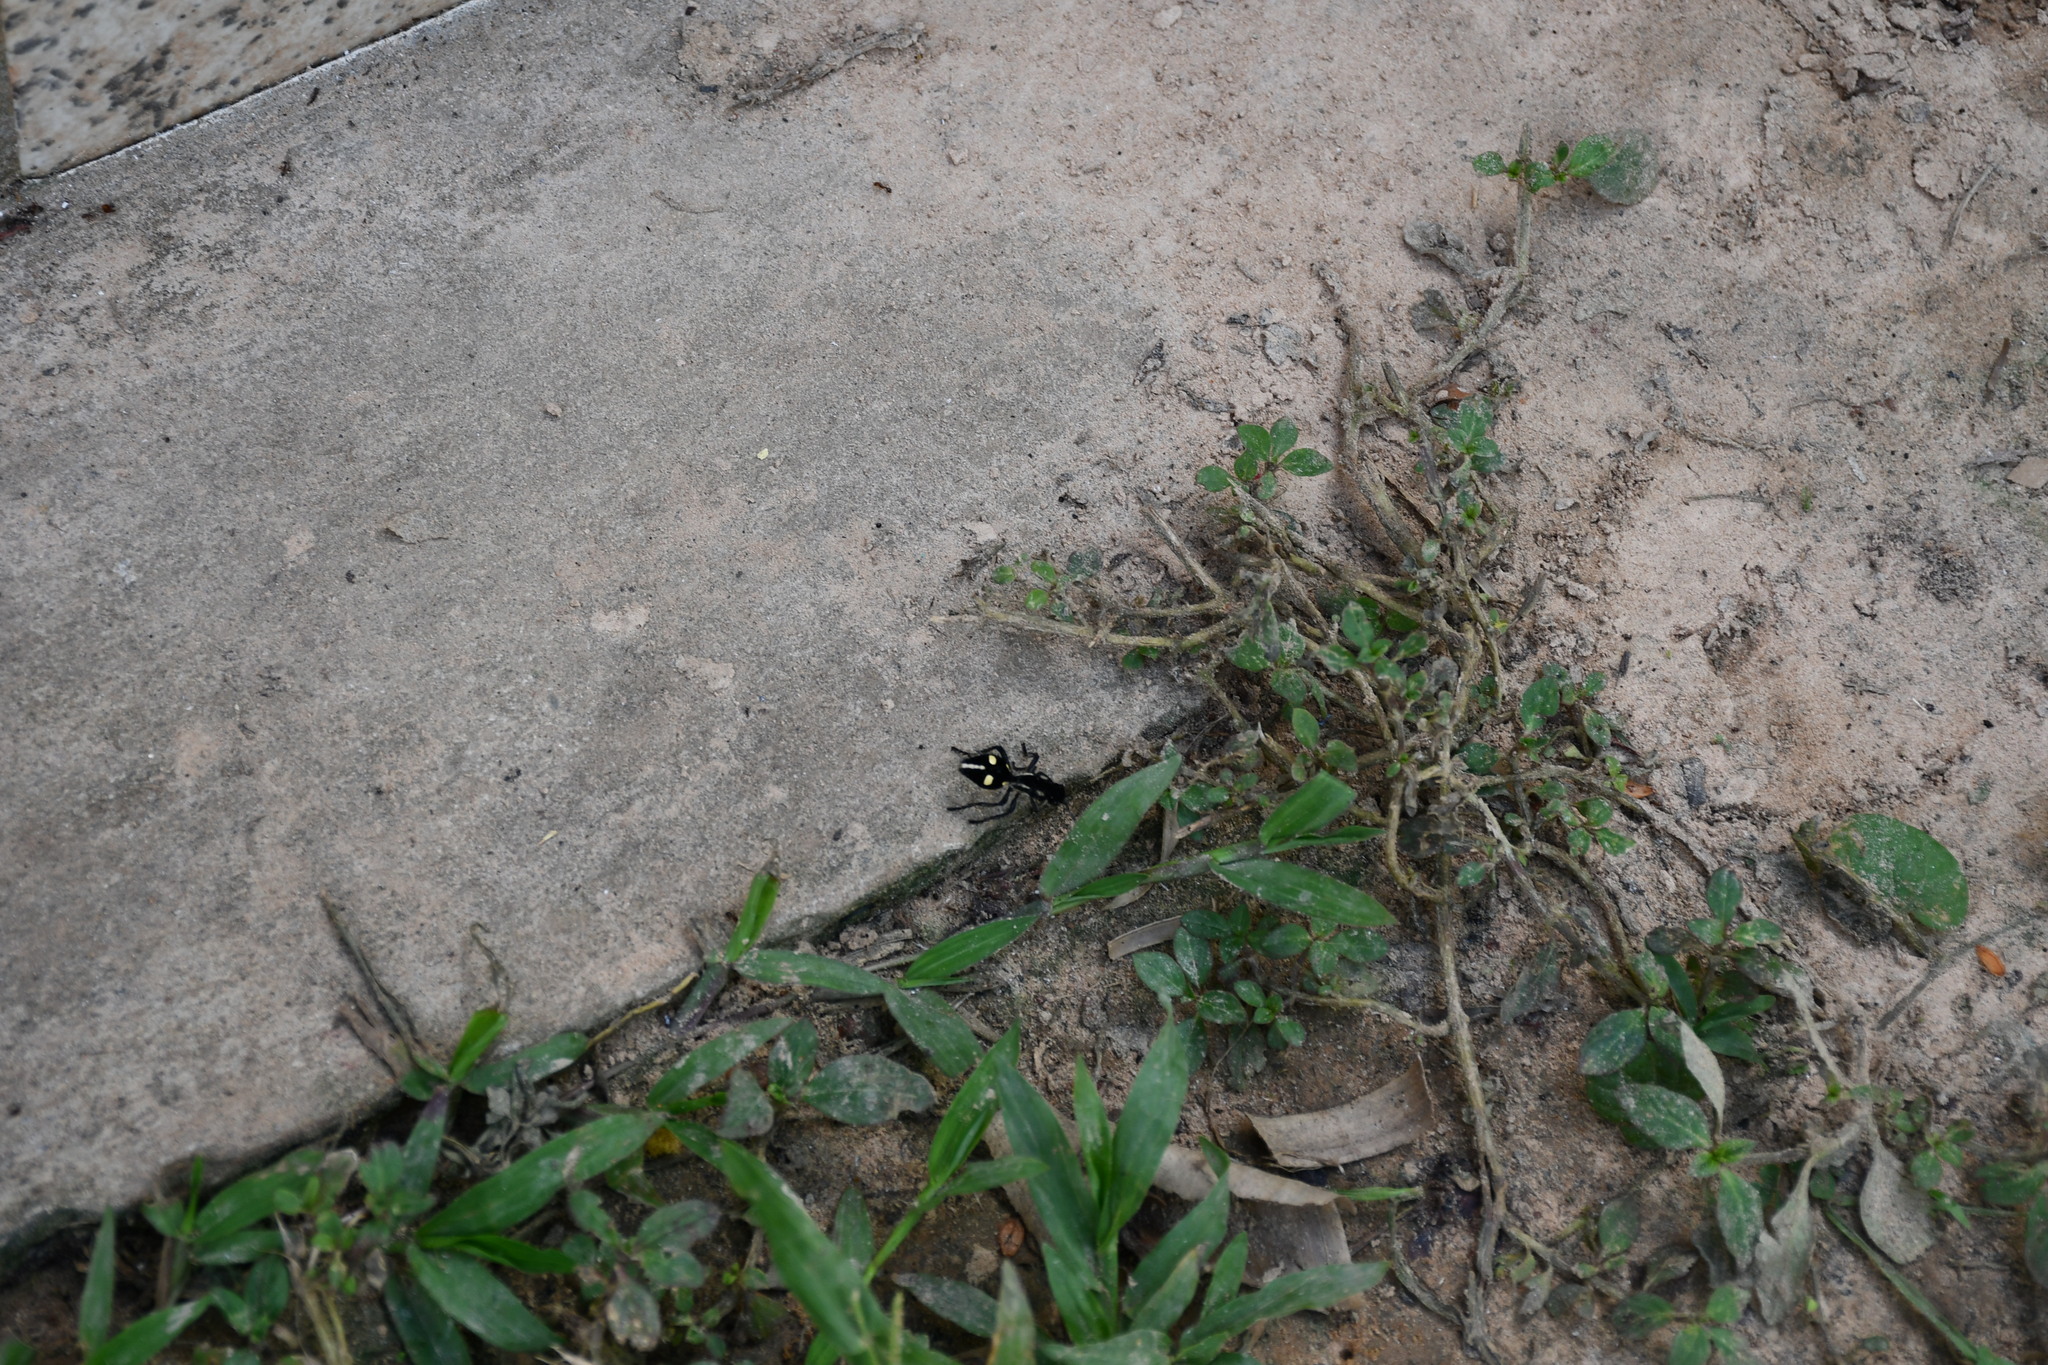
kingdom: Animalia
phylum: Arthropoda
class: Insecta
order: Hymenoptera
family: Mutillidae
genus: Traumatomutilla
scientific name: Traumatomutilla
